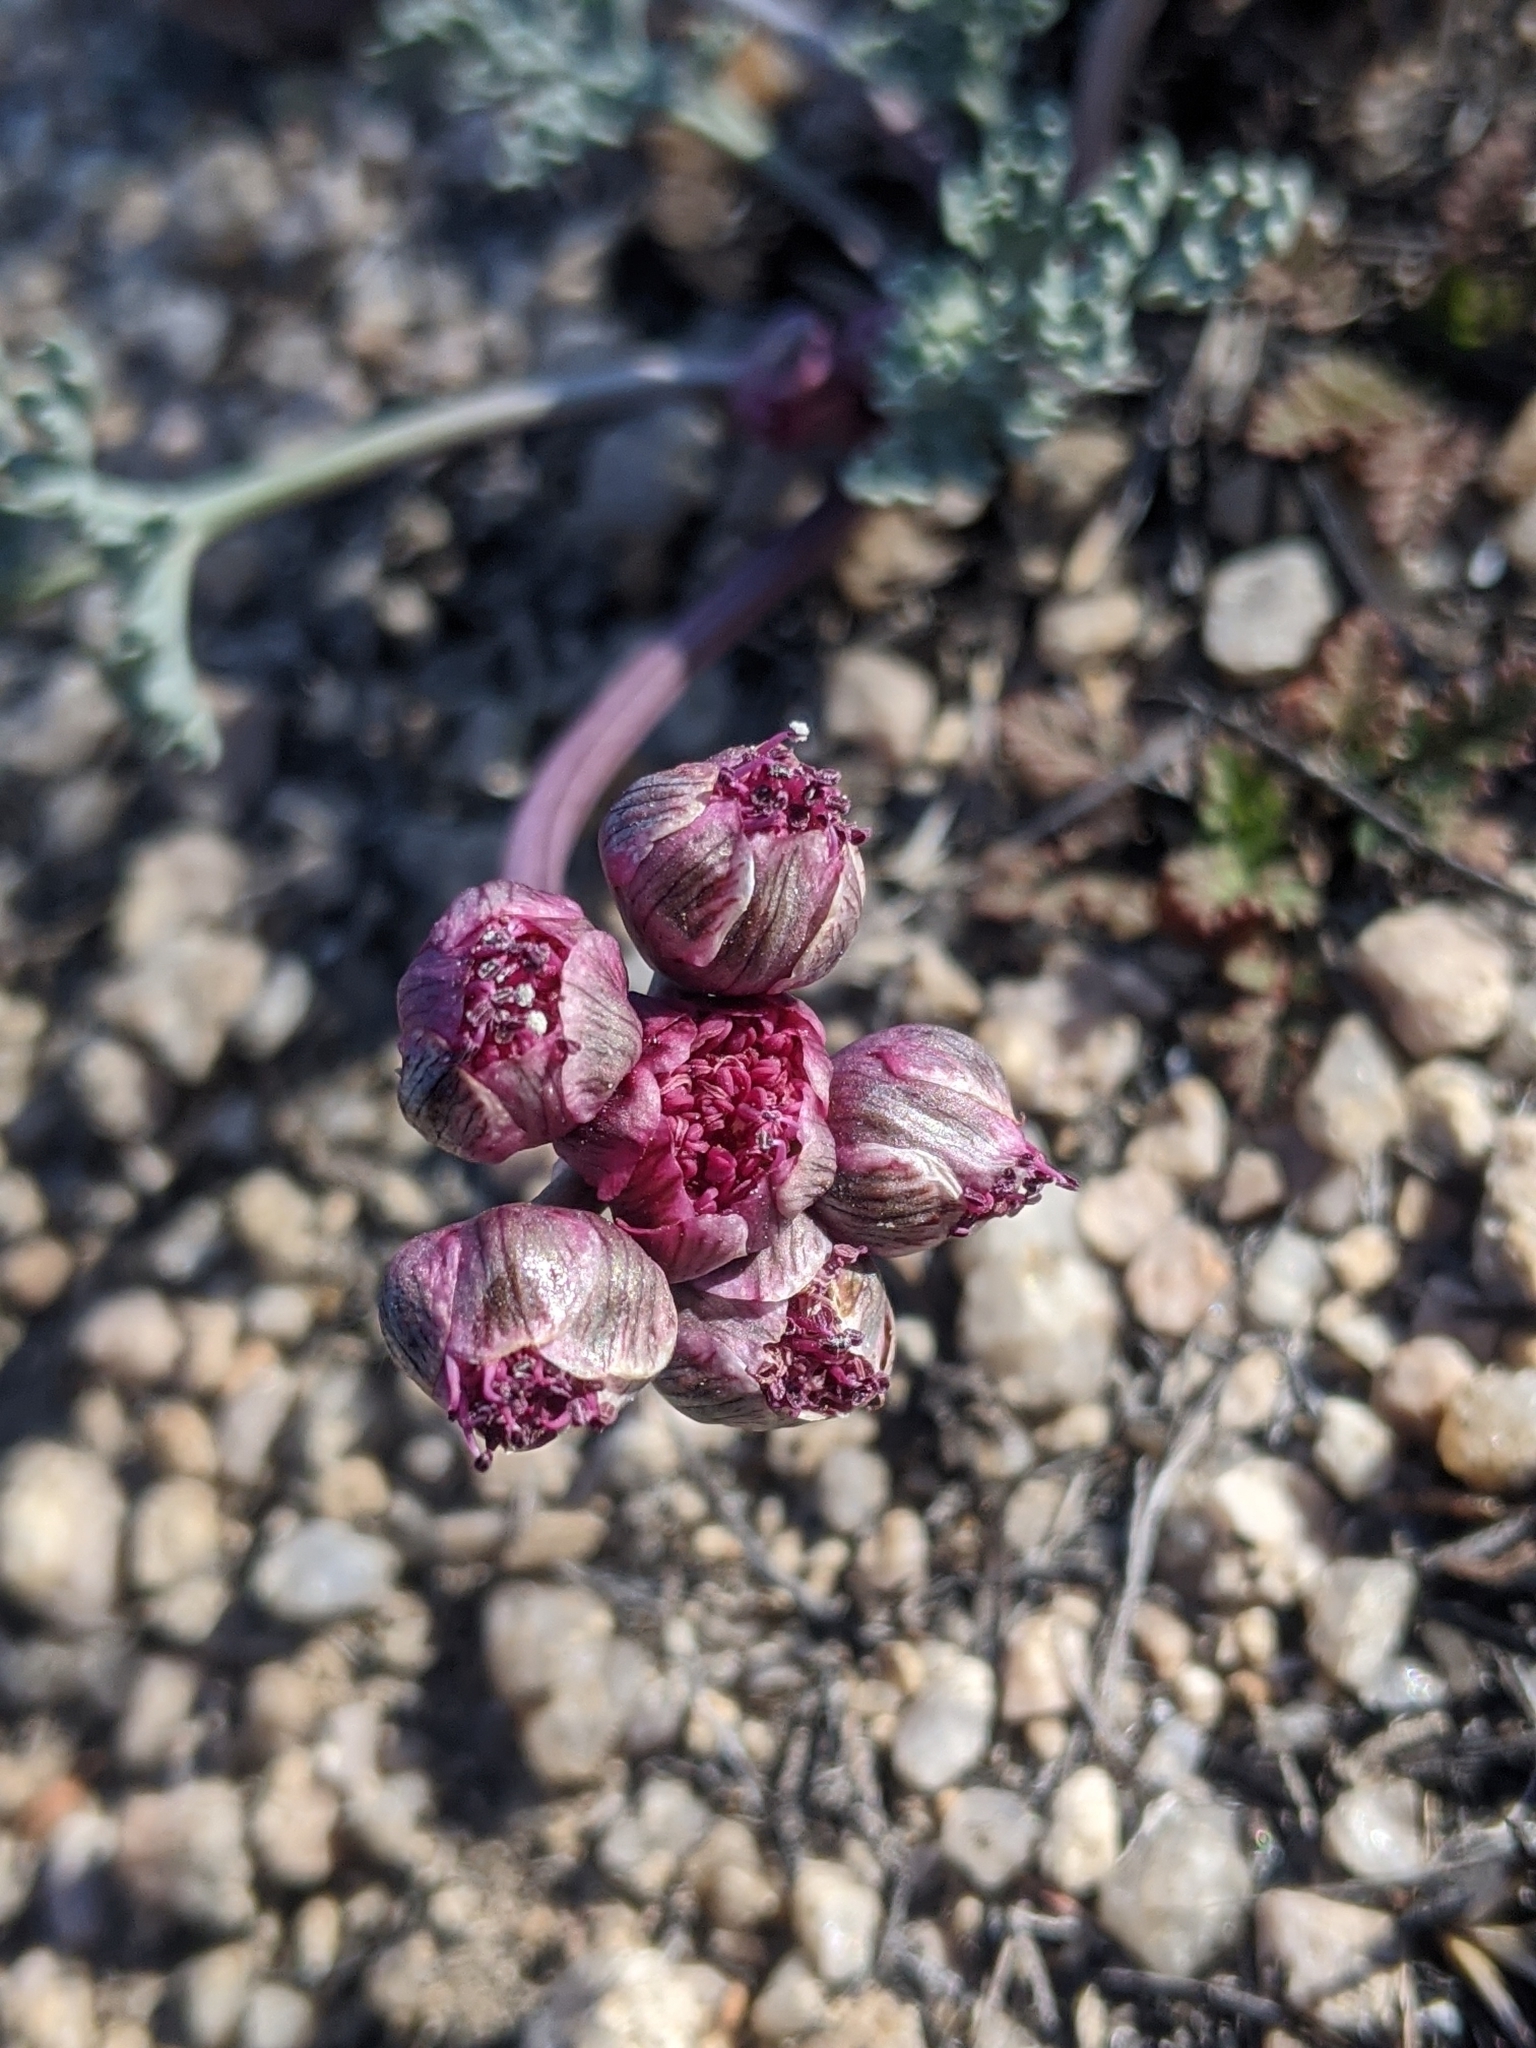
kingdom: Plantae
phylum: Tracheophyta
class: Magnoliopsida
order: Apiales
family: Apiaceae
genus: Vesper
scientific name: Vesper multinervatus
